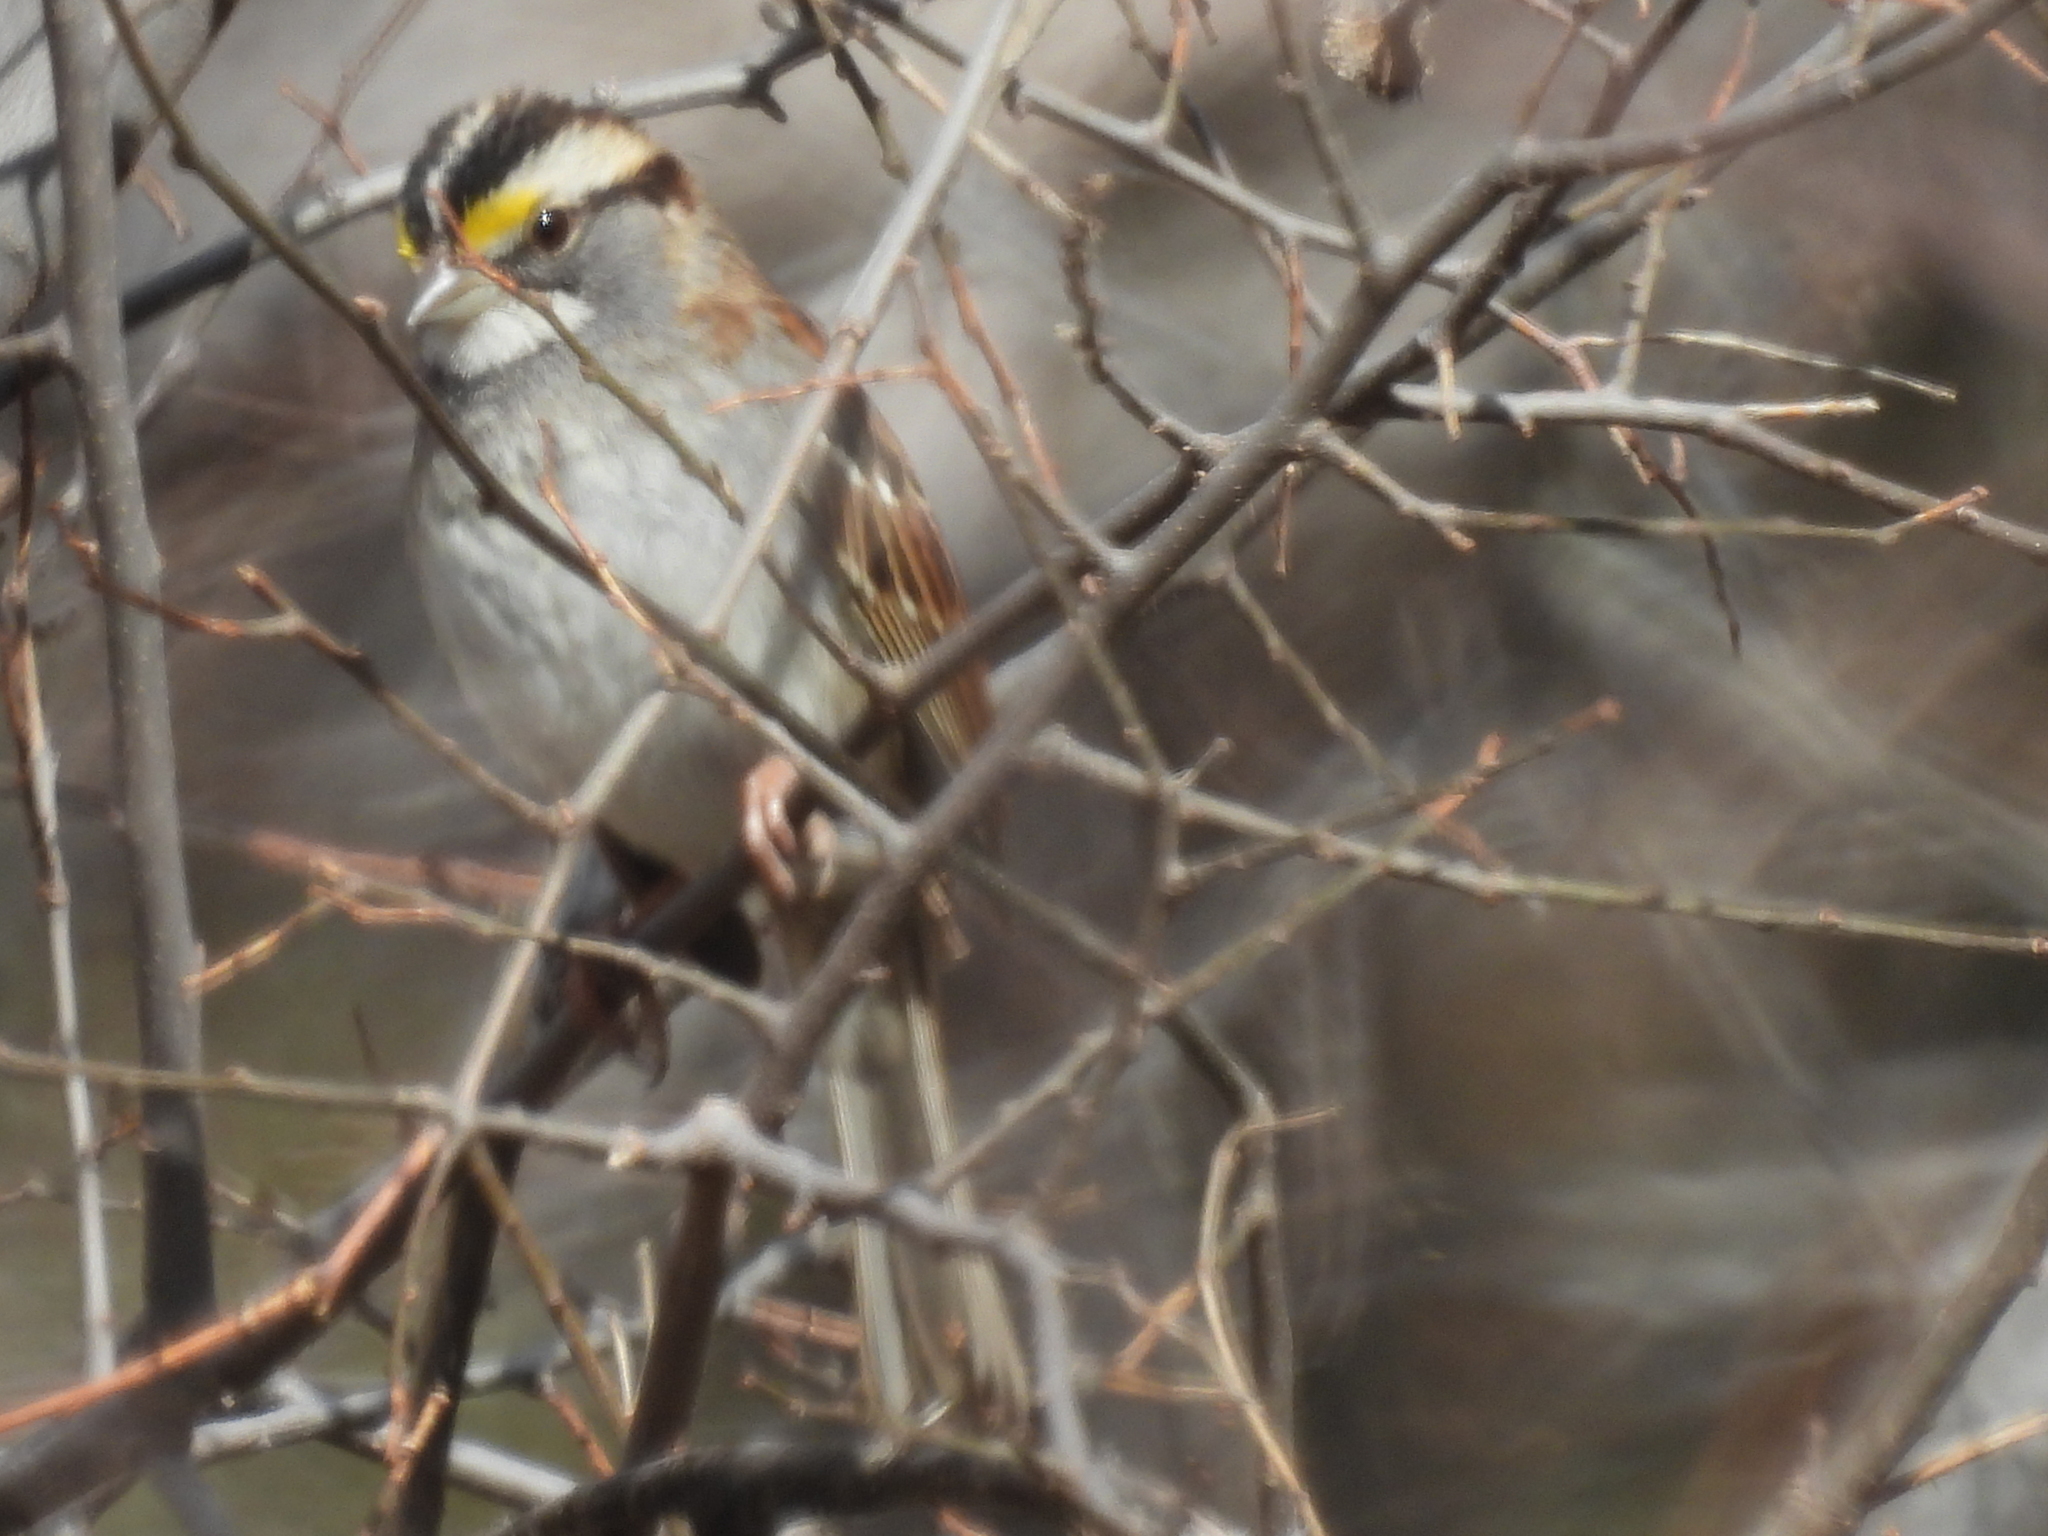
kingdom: Animalia
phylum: Chordata
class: Aves
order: Passeriformes
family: Passerellidae
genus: Zonotrichia
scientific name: Zonotrichia albicollis
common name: White-throated sparrow
